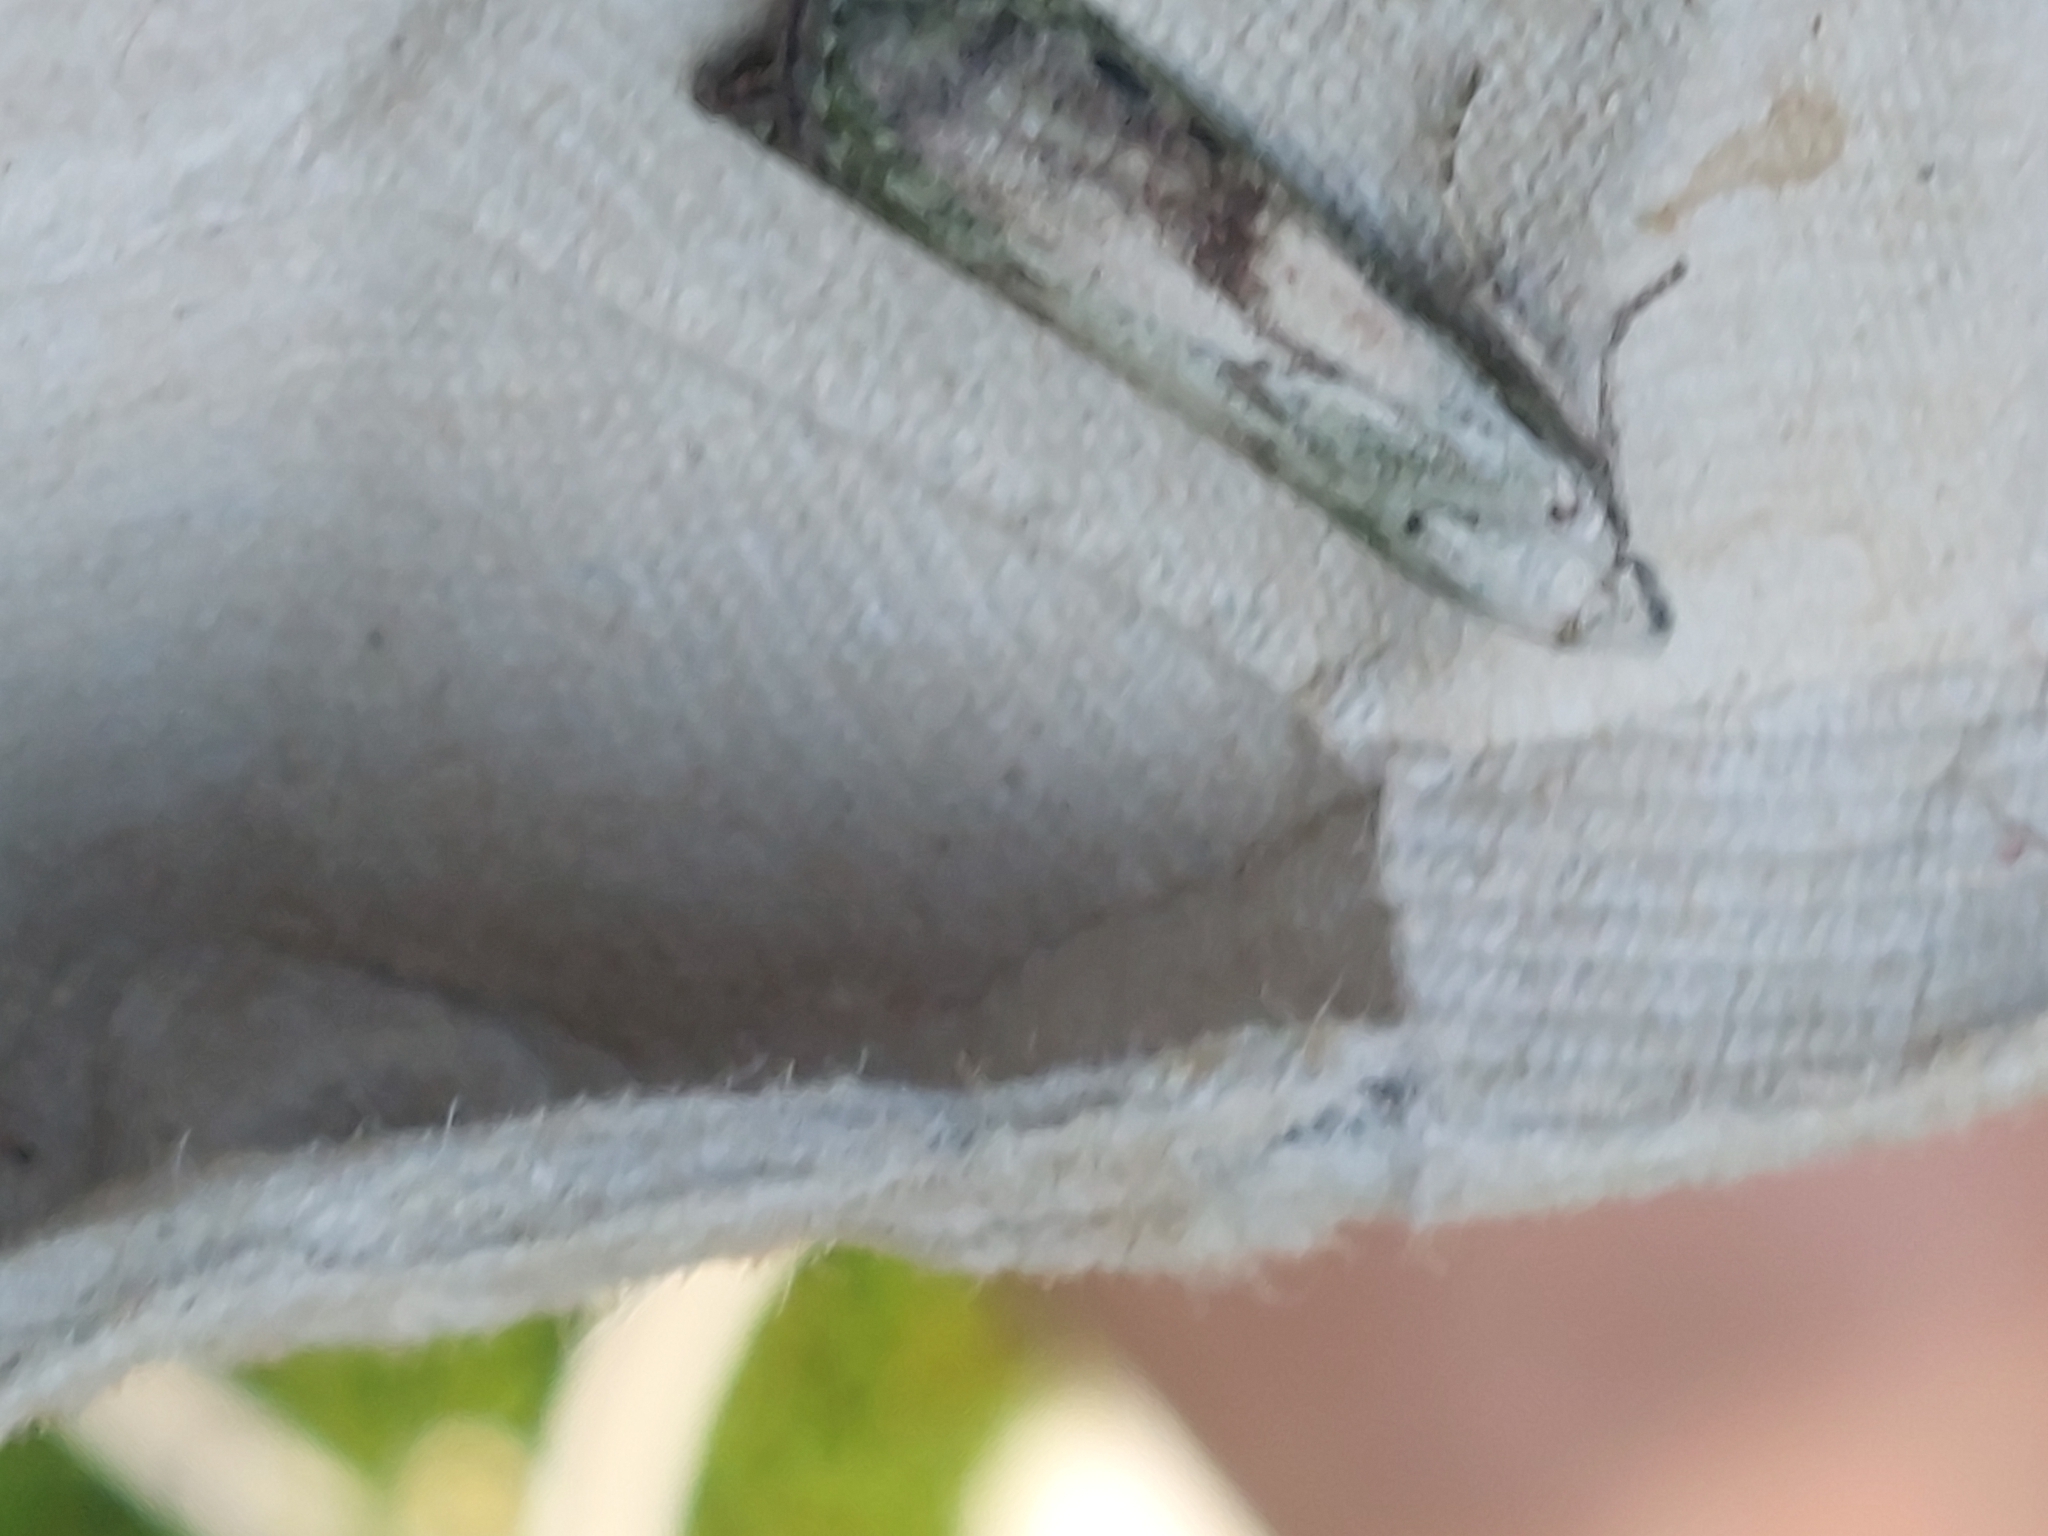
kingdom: Animalia
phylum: Arthropoda
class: Insecta
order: Lepidoptera
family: Pyralidae
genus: Aphomia
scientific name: Aphomia sociella
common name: Bee moth
